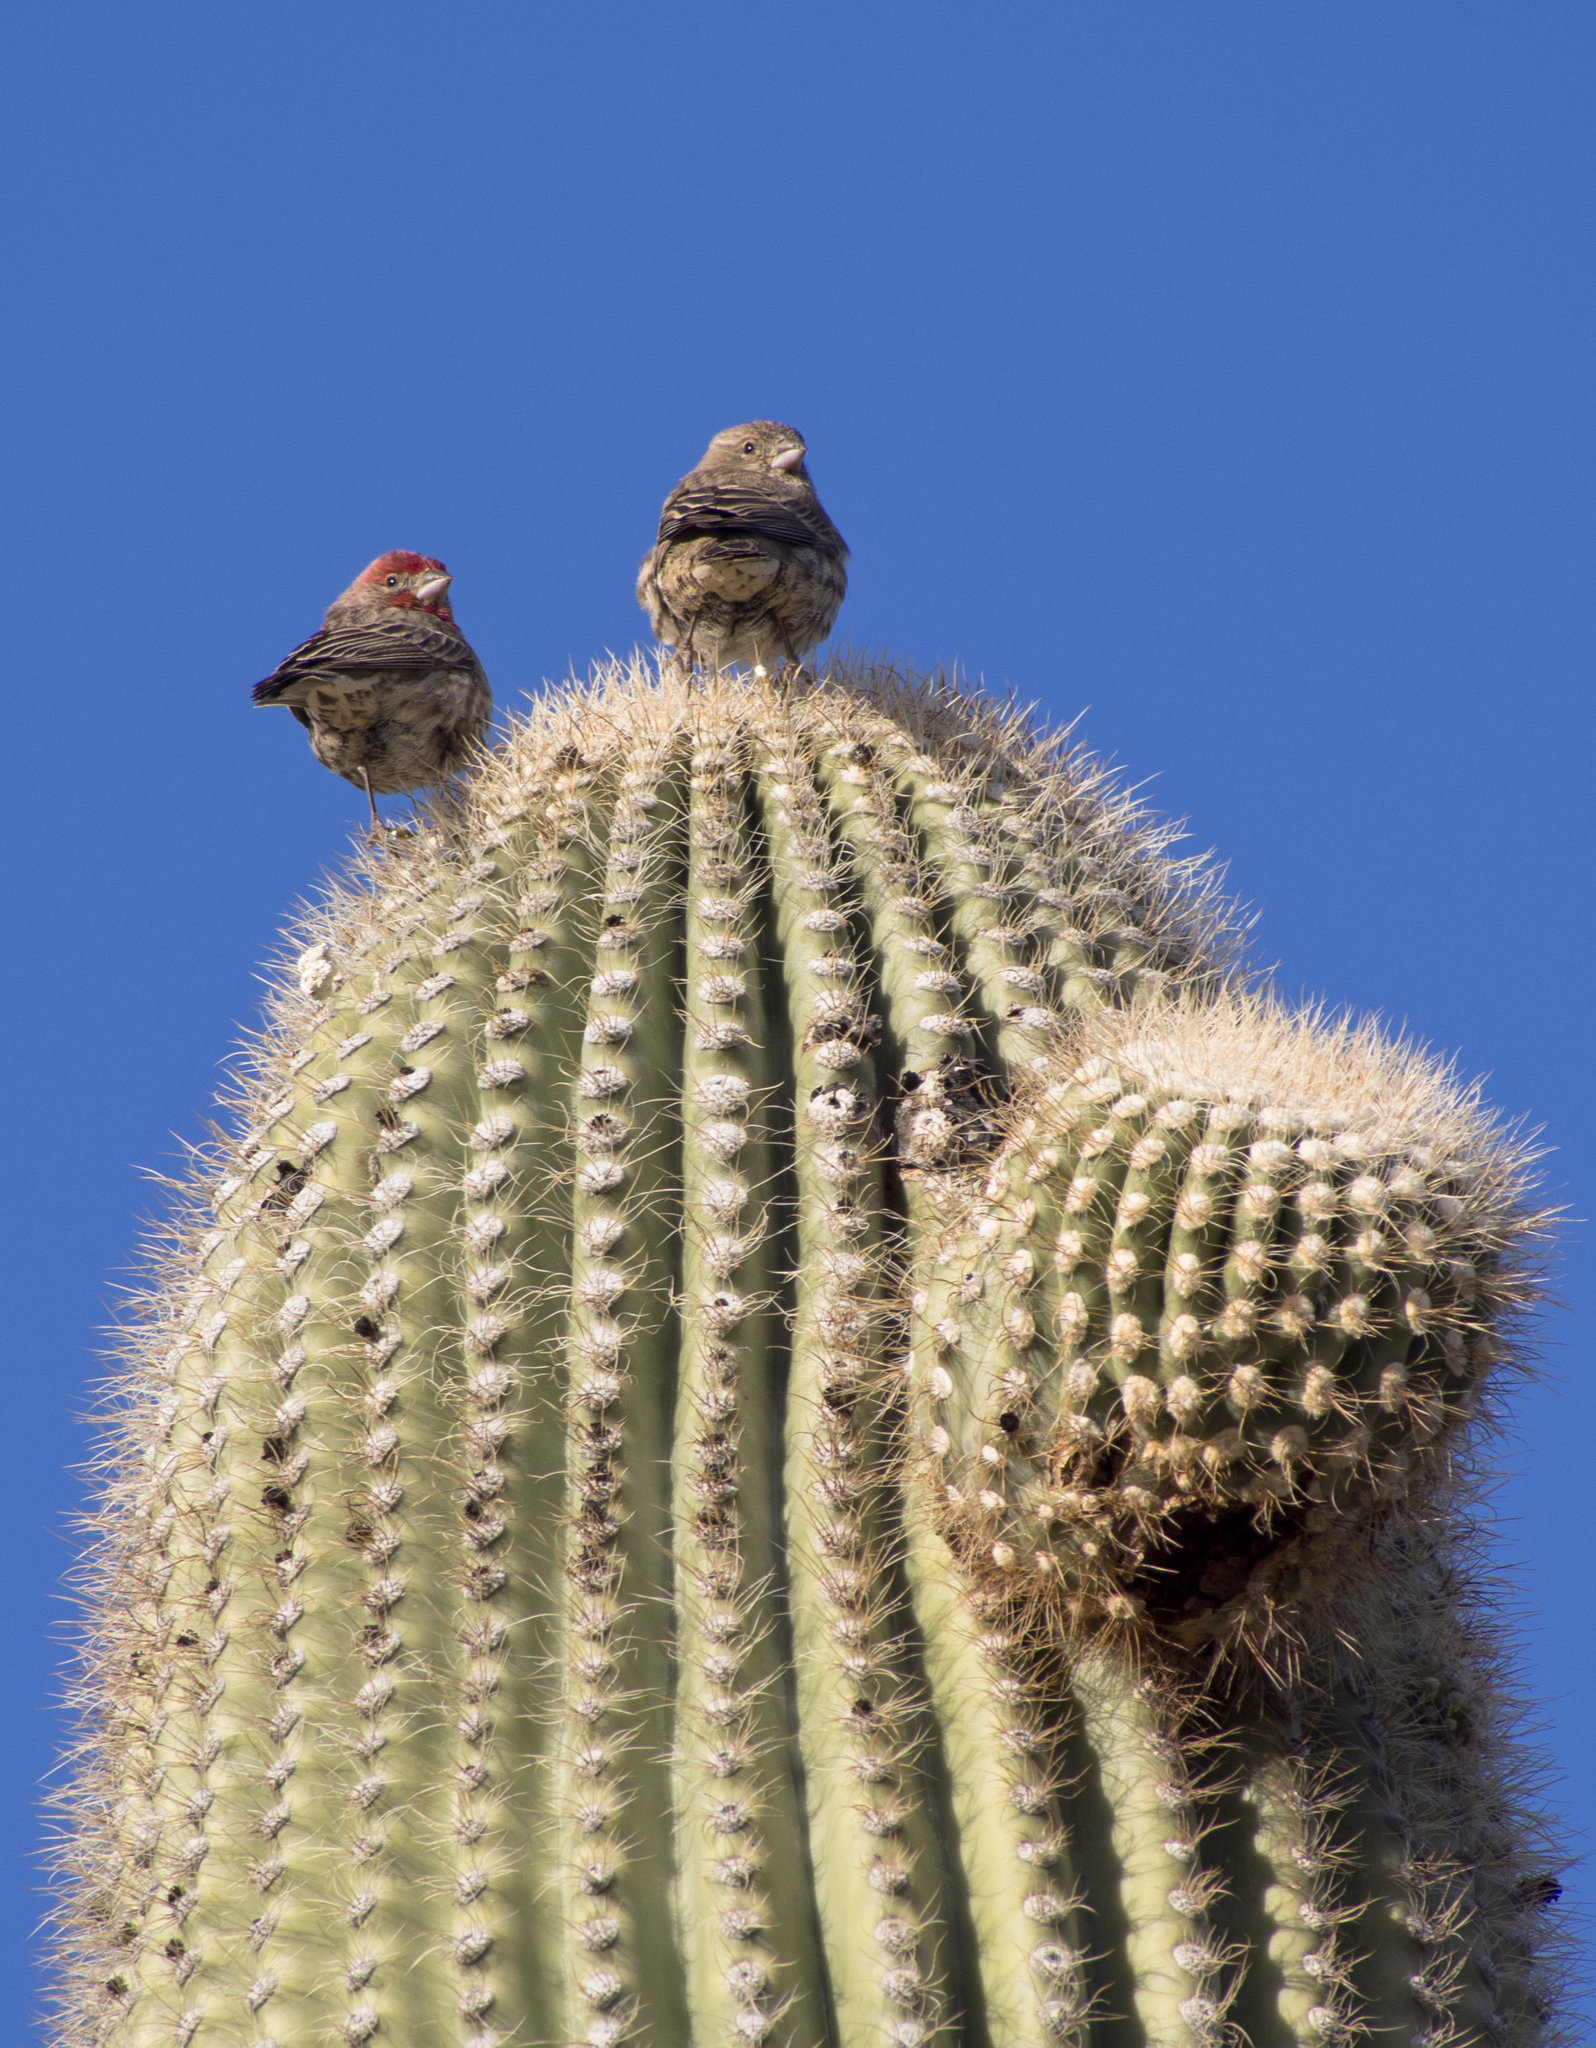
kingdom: Animalia
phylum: Chordata
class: Aves
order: Passeriformes
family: Fringillidae
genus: Haemorhous
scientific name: Haemorhous mexicanus
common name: House finch
